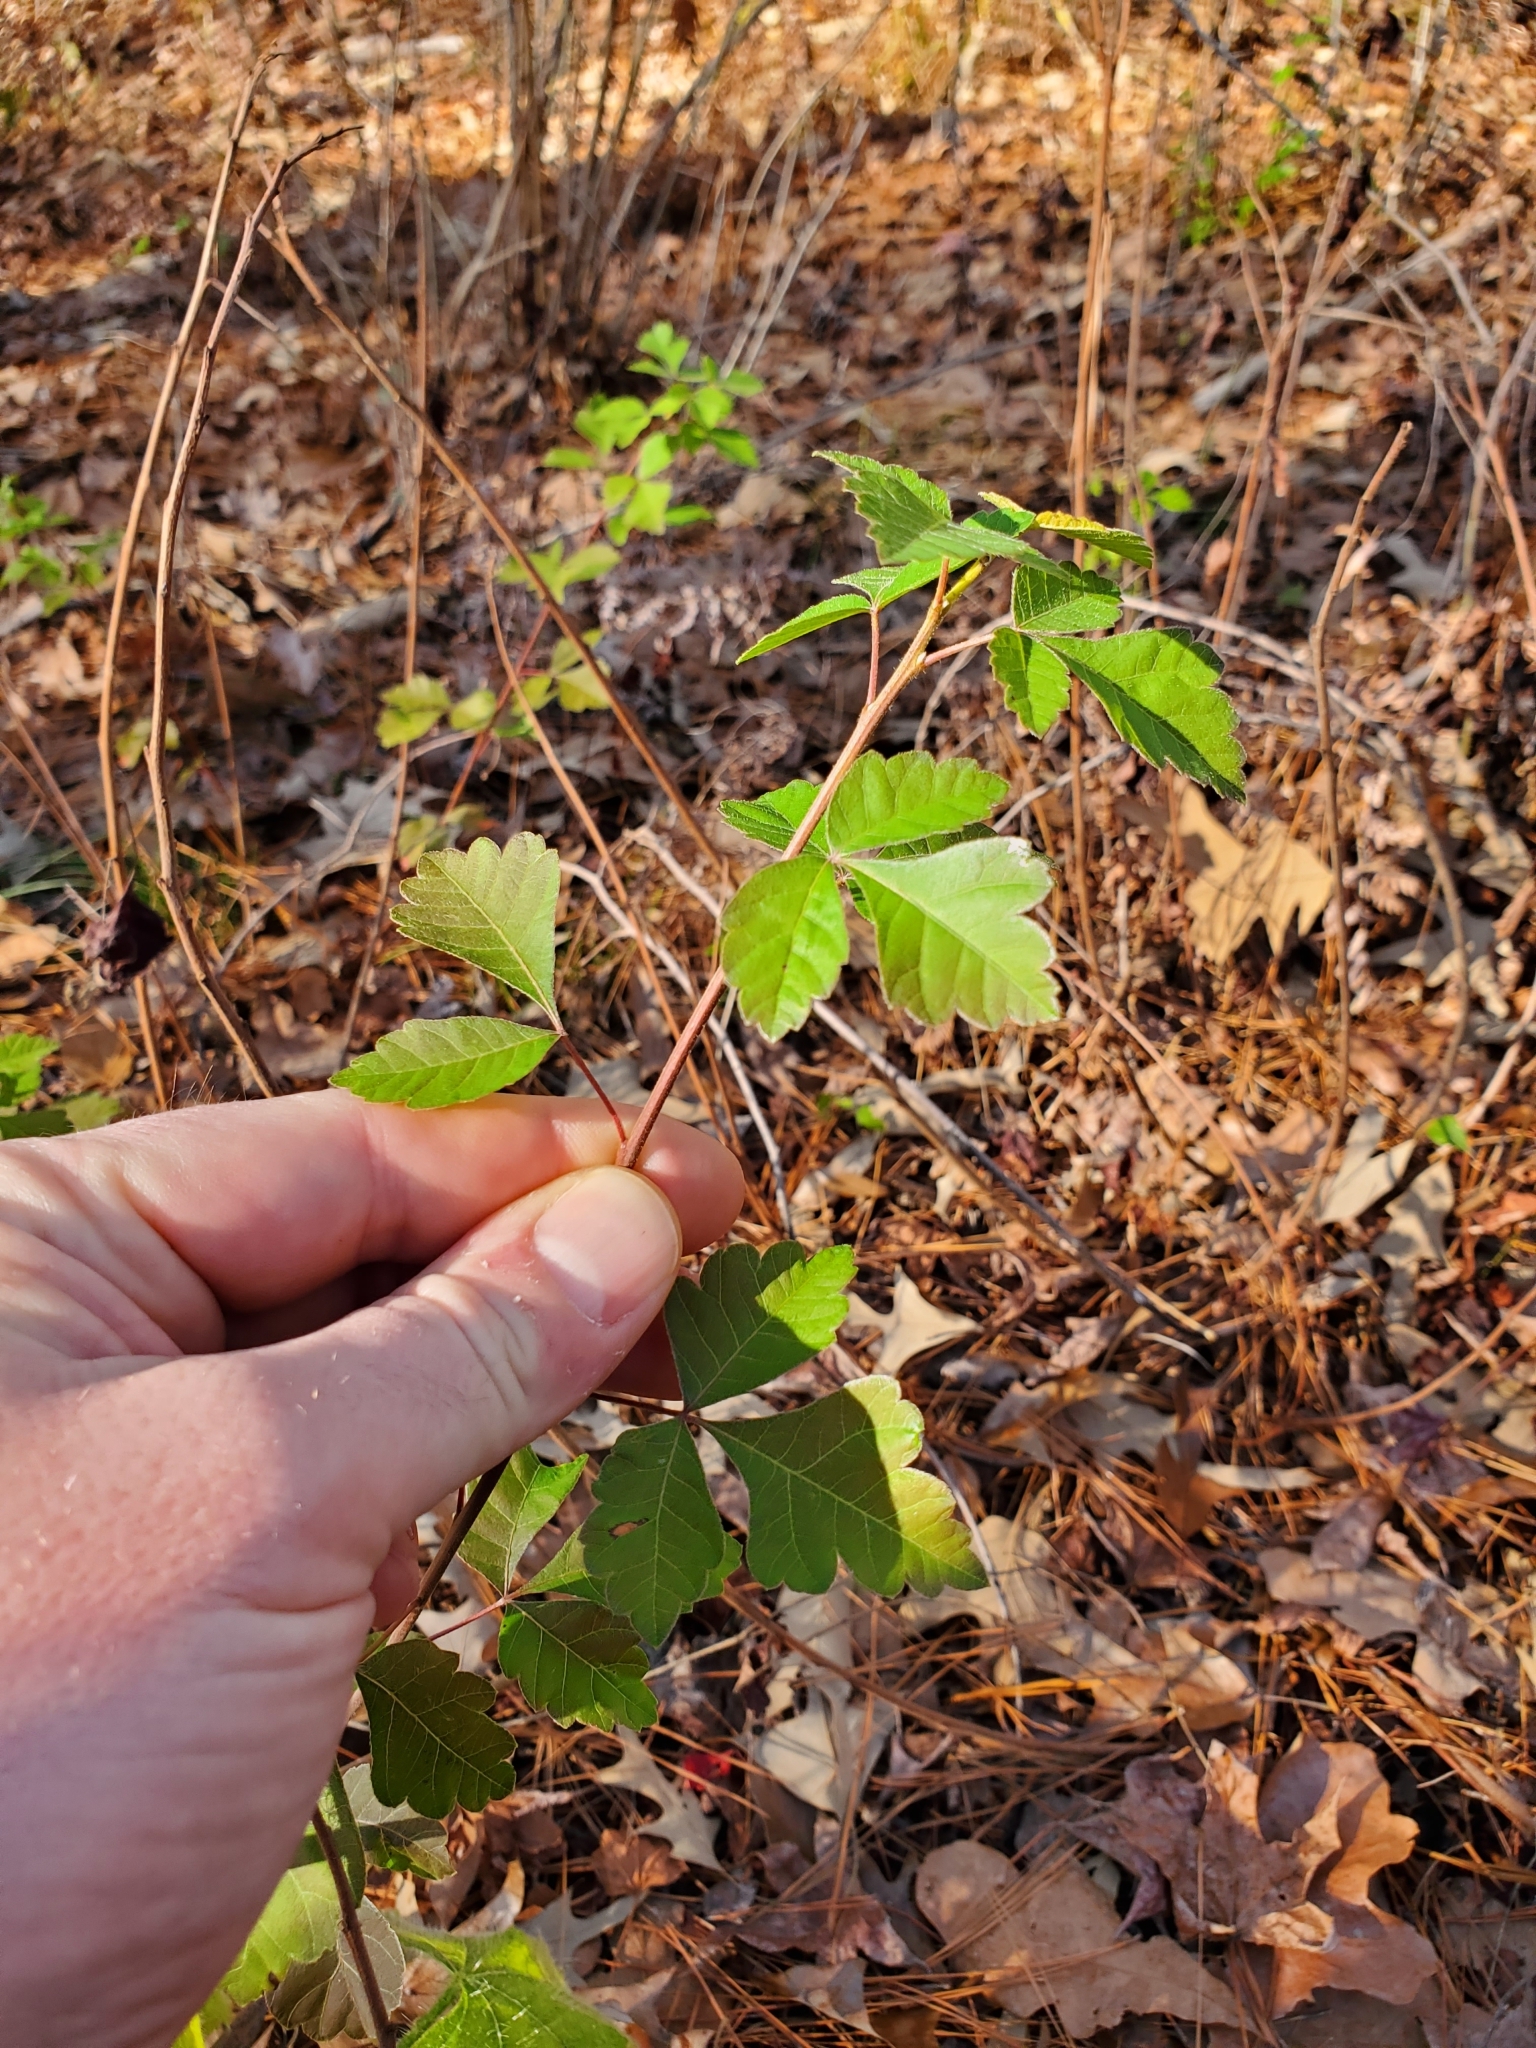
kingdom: Plantae
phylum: Tracheophyta
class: Magnoliopsida
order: Sapindales
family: Anacardiaceae
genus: Rhus
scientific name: Rhus aromatica
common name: Aromatic sumac
